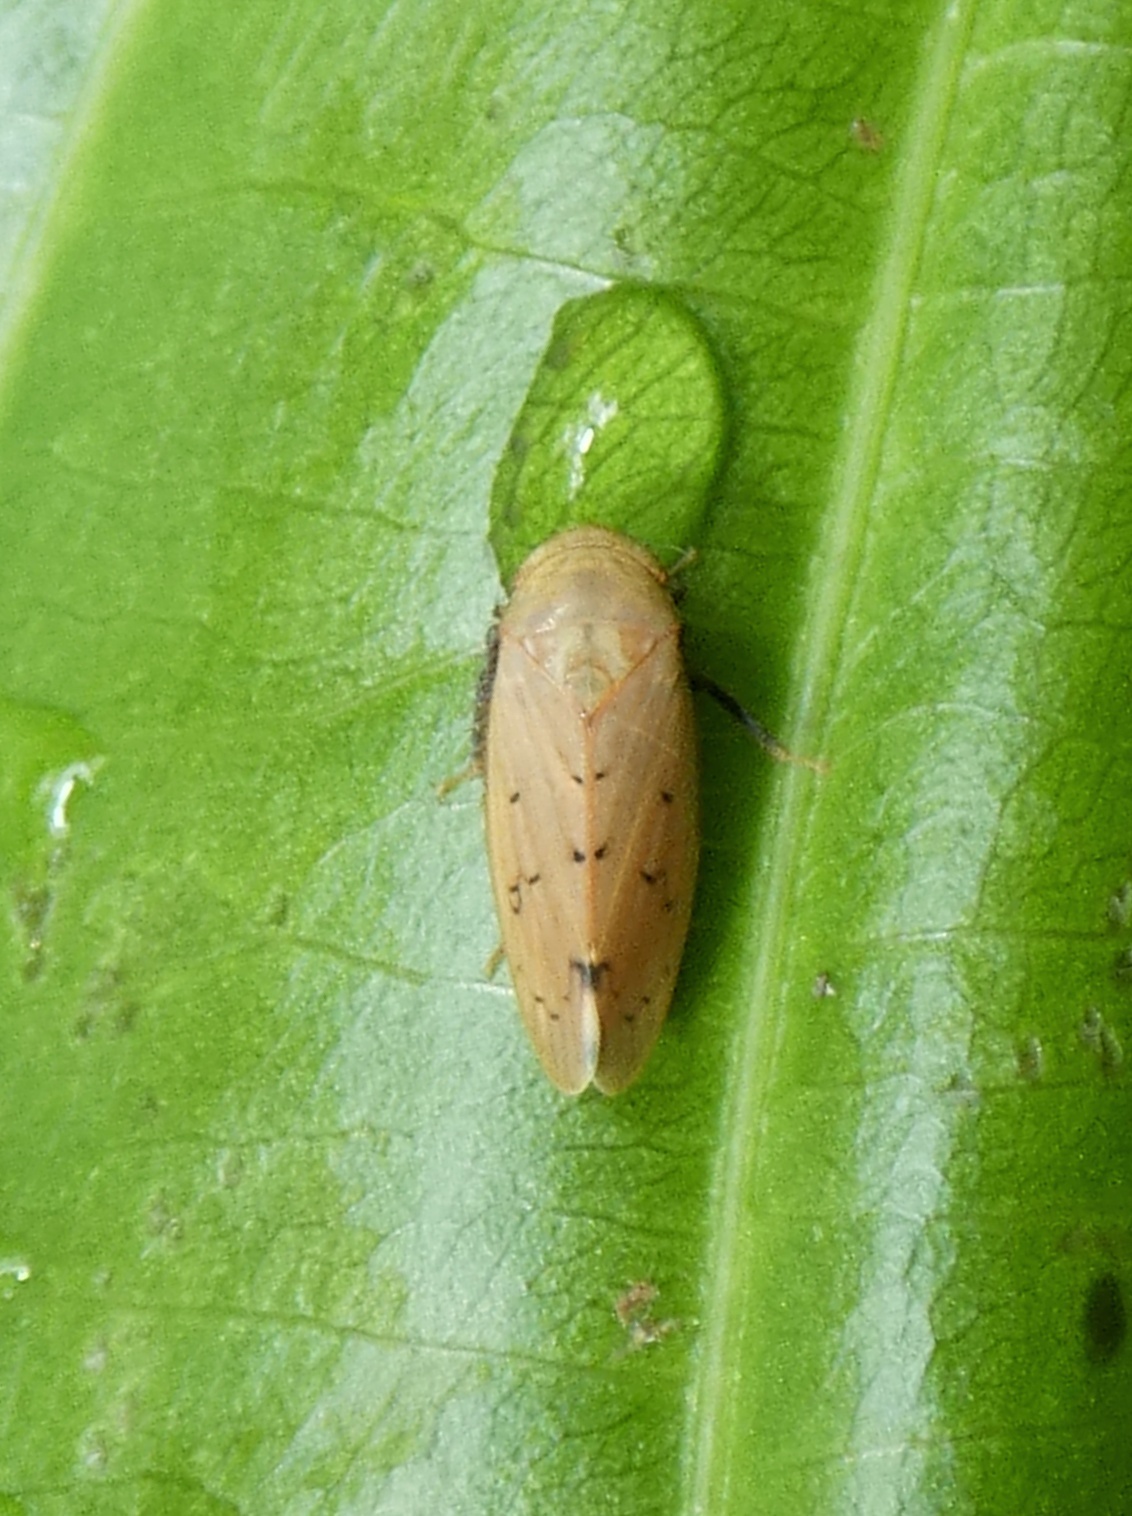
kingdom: Animalia
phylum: Arthropoda
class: Insecta
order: Hemiptera
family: Cicadellidae
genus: Ponana
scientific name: Ponana bola
